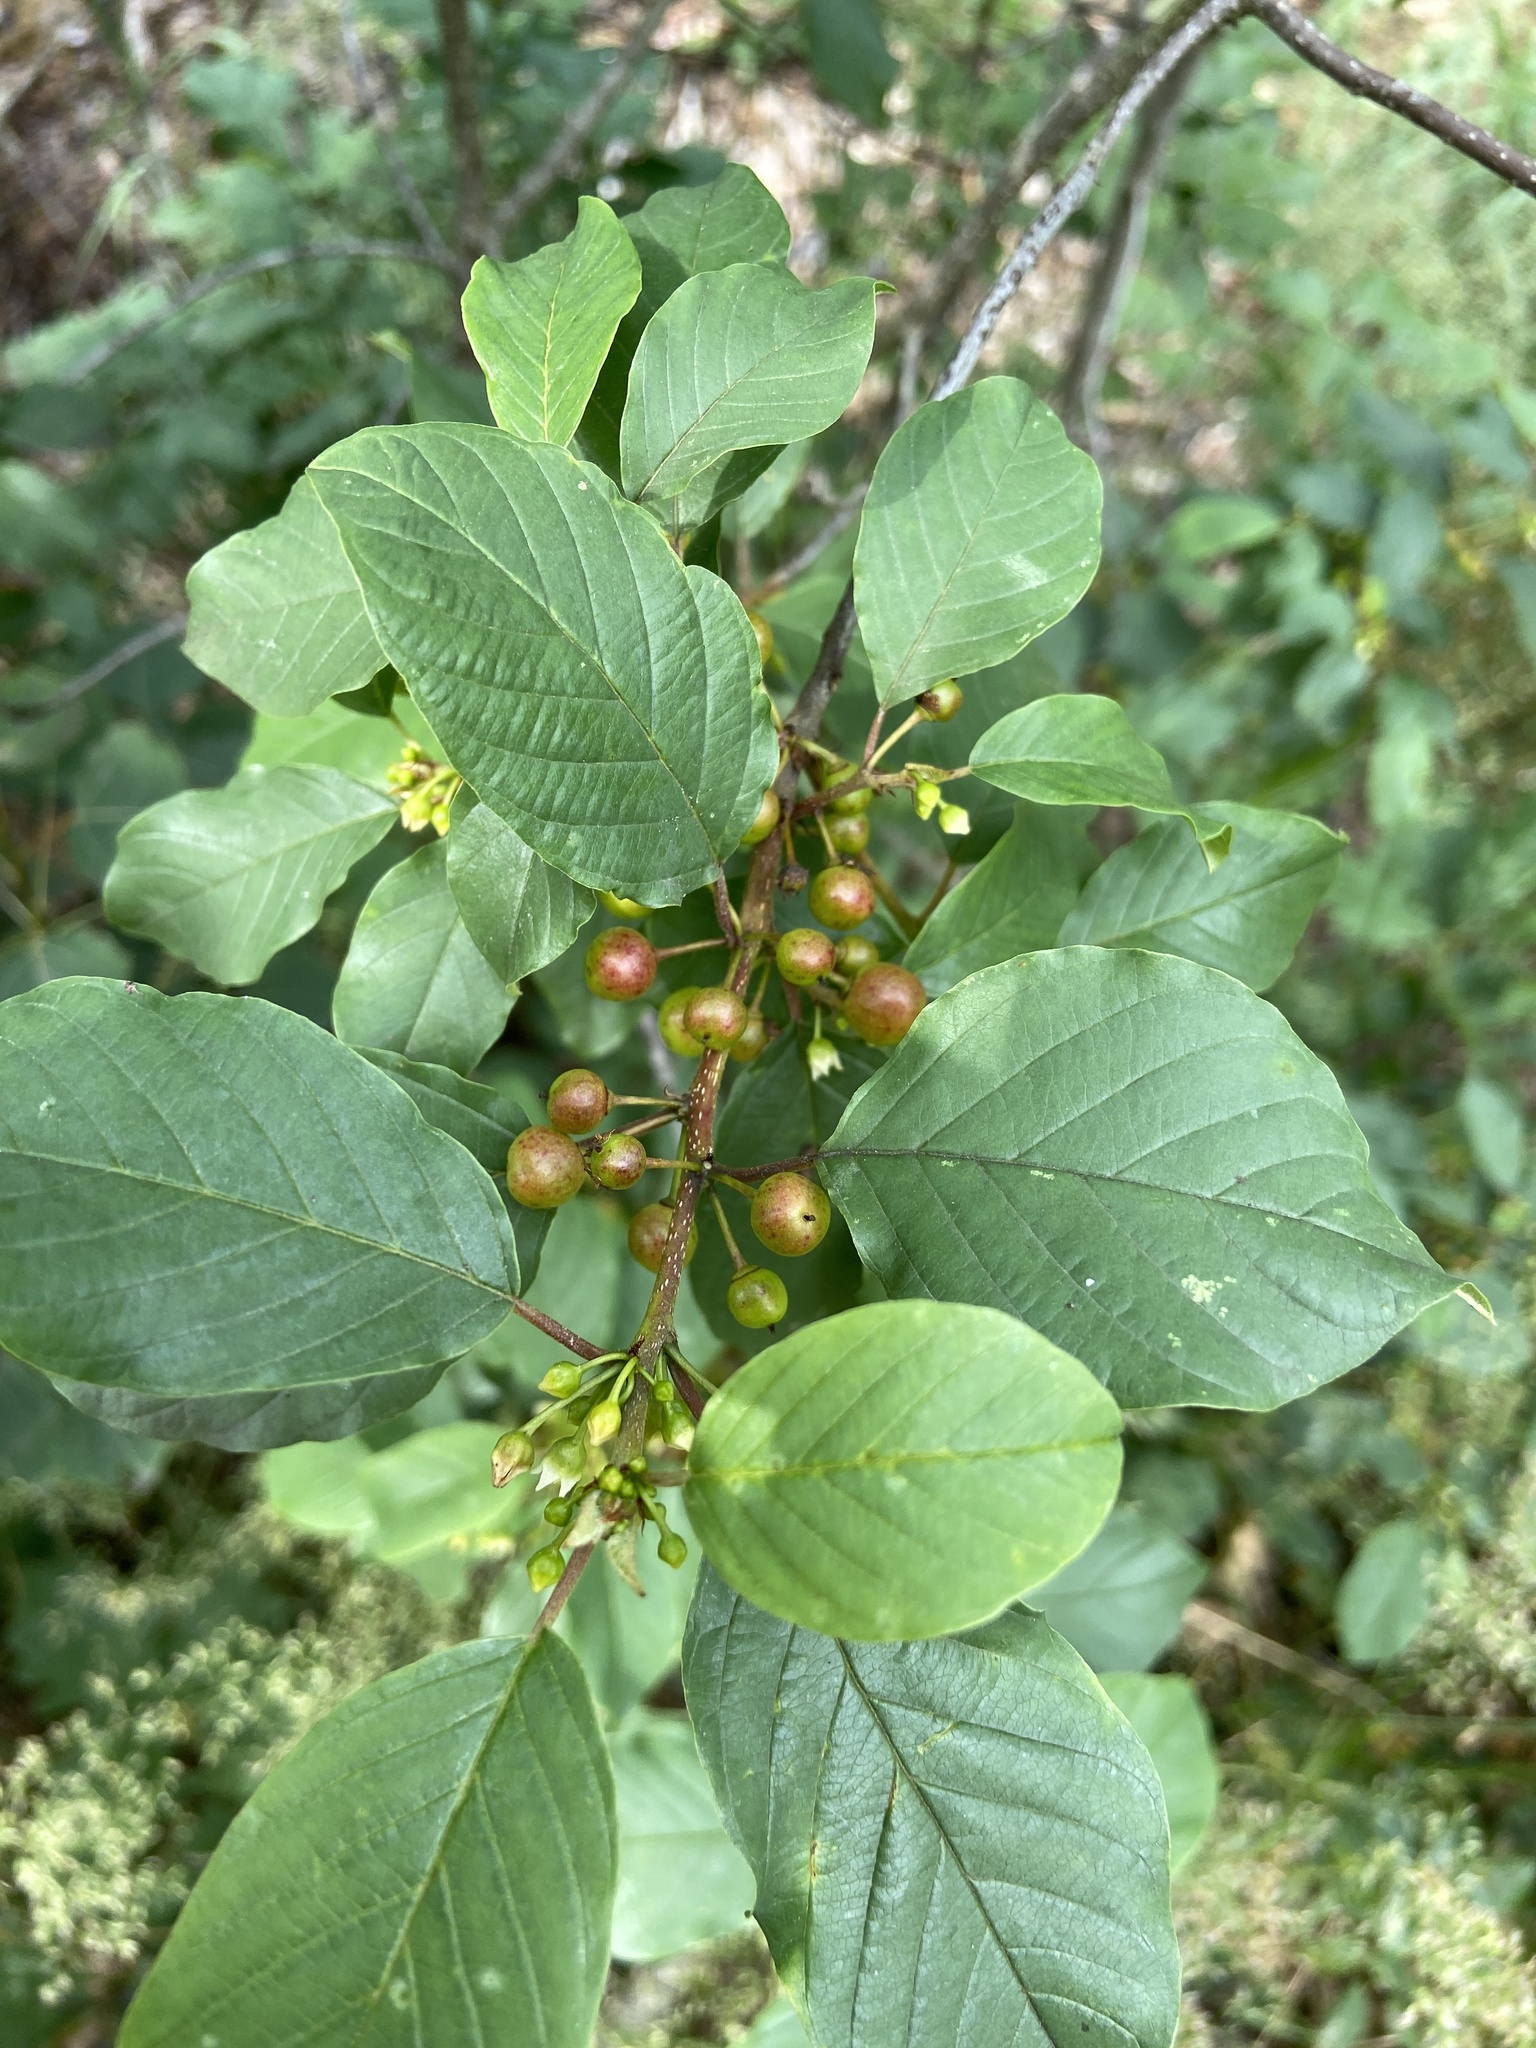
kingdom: Plantae
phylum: Tracheophyta
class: Magnoliopsida
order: Rosales
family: Rhamnaceae
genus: Frangula
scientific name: Frangula alnus
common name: Alder buckthorn
